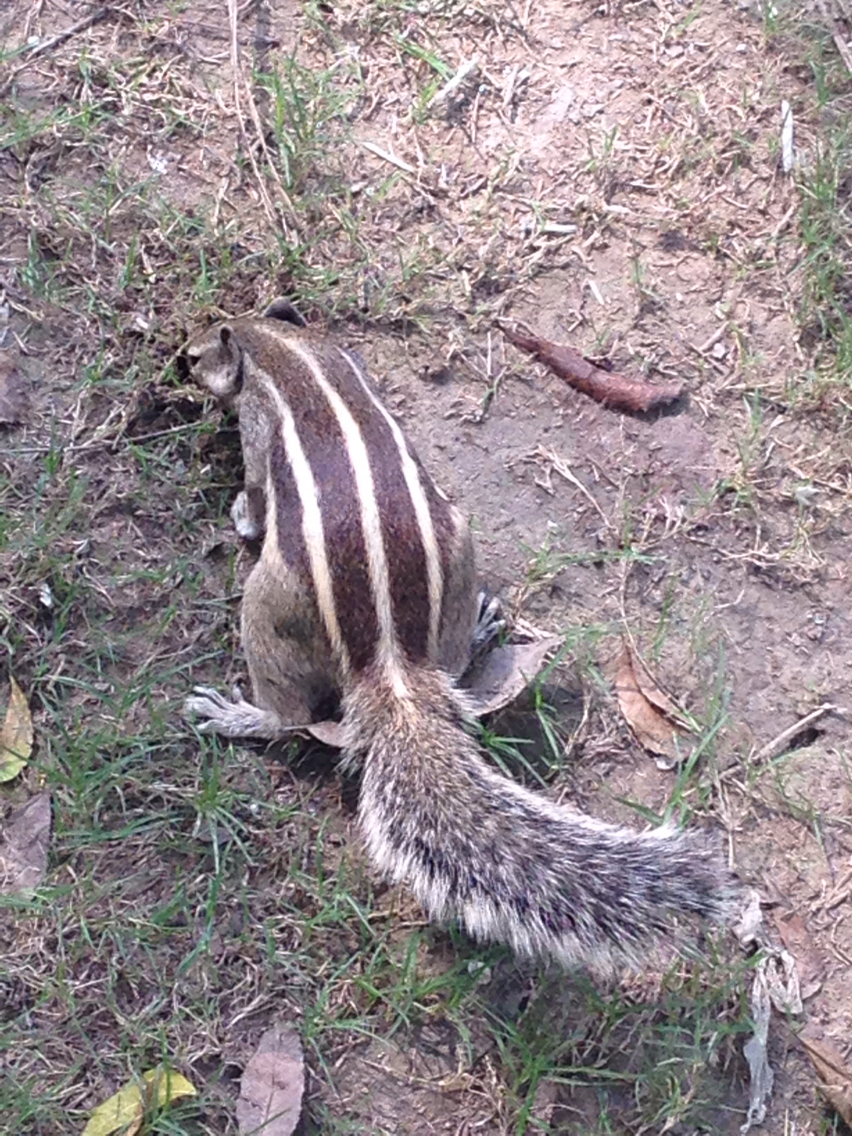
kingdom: Animalia
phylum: Chordata
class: Mammalia
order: Rodentia
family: Sciuridae
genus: Funambulus
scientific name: Funambulus pennantii
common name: Northern palm squirrel
